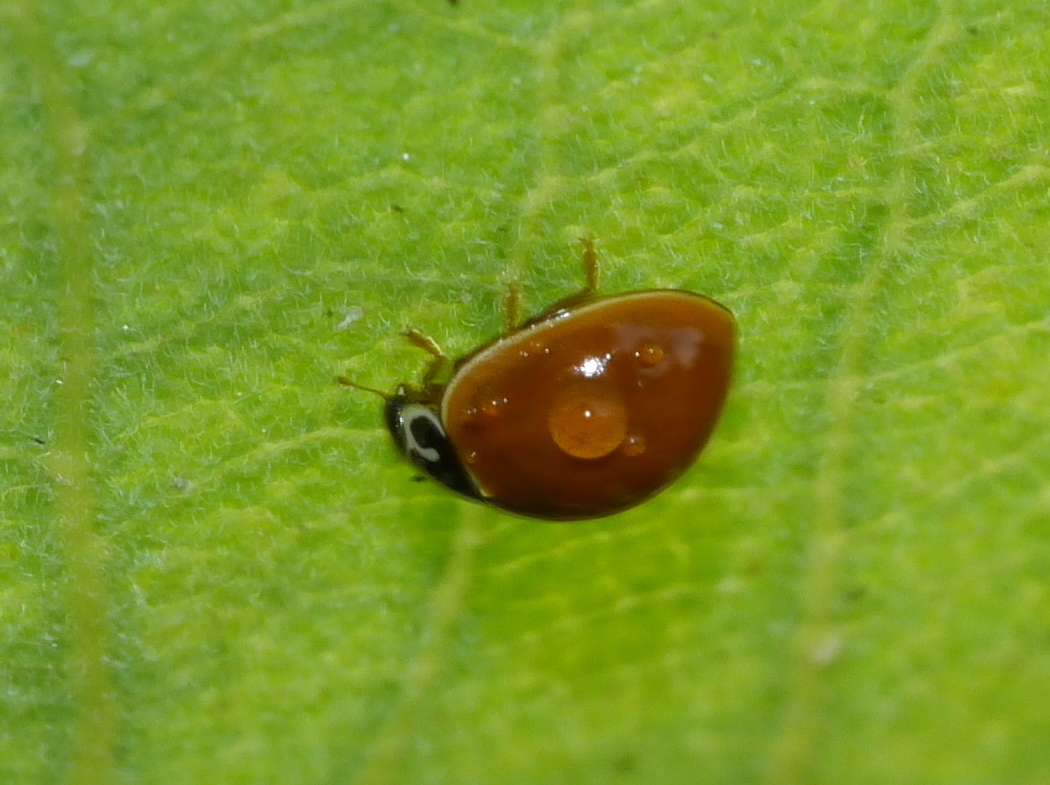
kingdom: Animalia
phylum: Arthropoda
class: Insecta
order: Coleoptera
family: Coccinellidae
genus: Cycloneda
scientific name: Cycloneda munda
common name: Polished lady beetle
